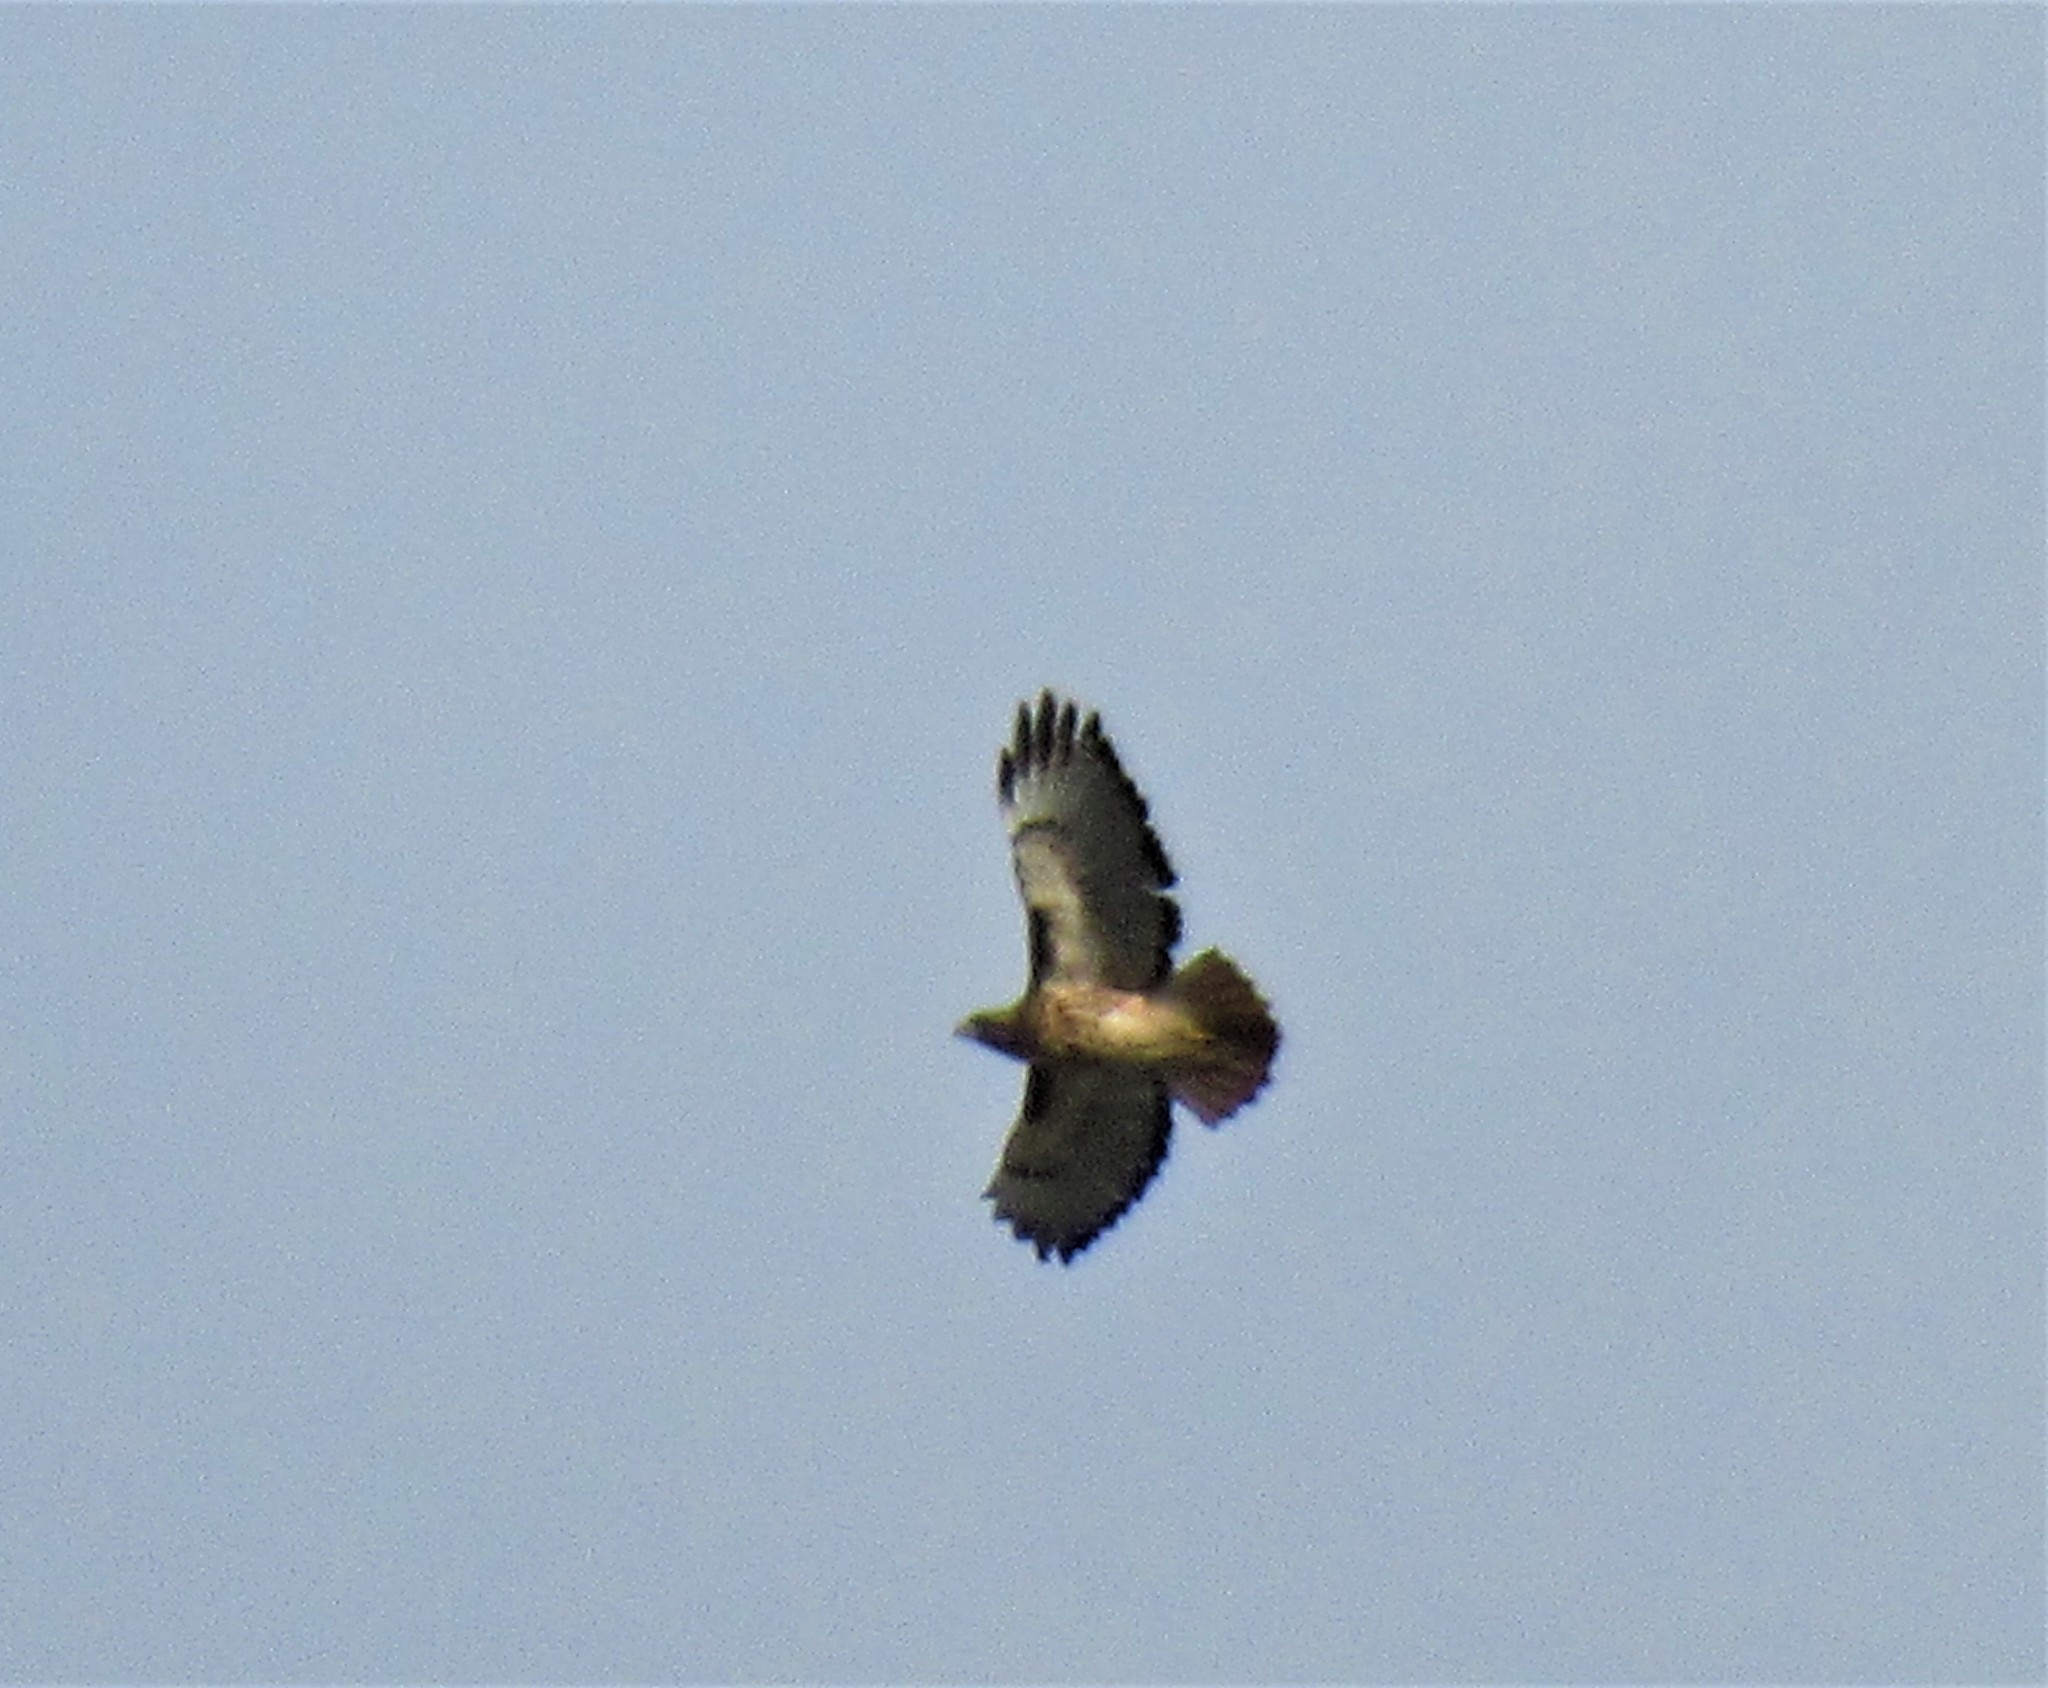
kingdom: Animalia
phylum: Chordata
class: Aves
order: Accipitriformes
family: Accipitridae
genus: Buteo
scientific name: Buteo jamaicensis
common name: Red-tailed hawk
